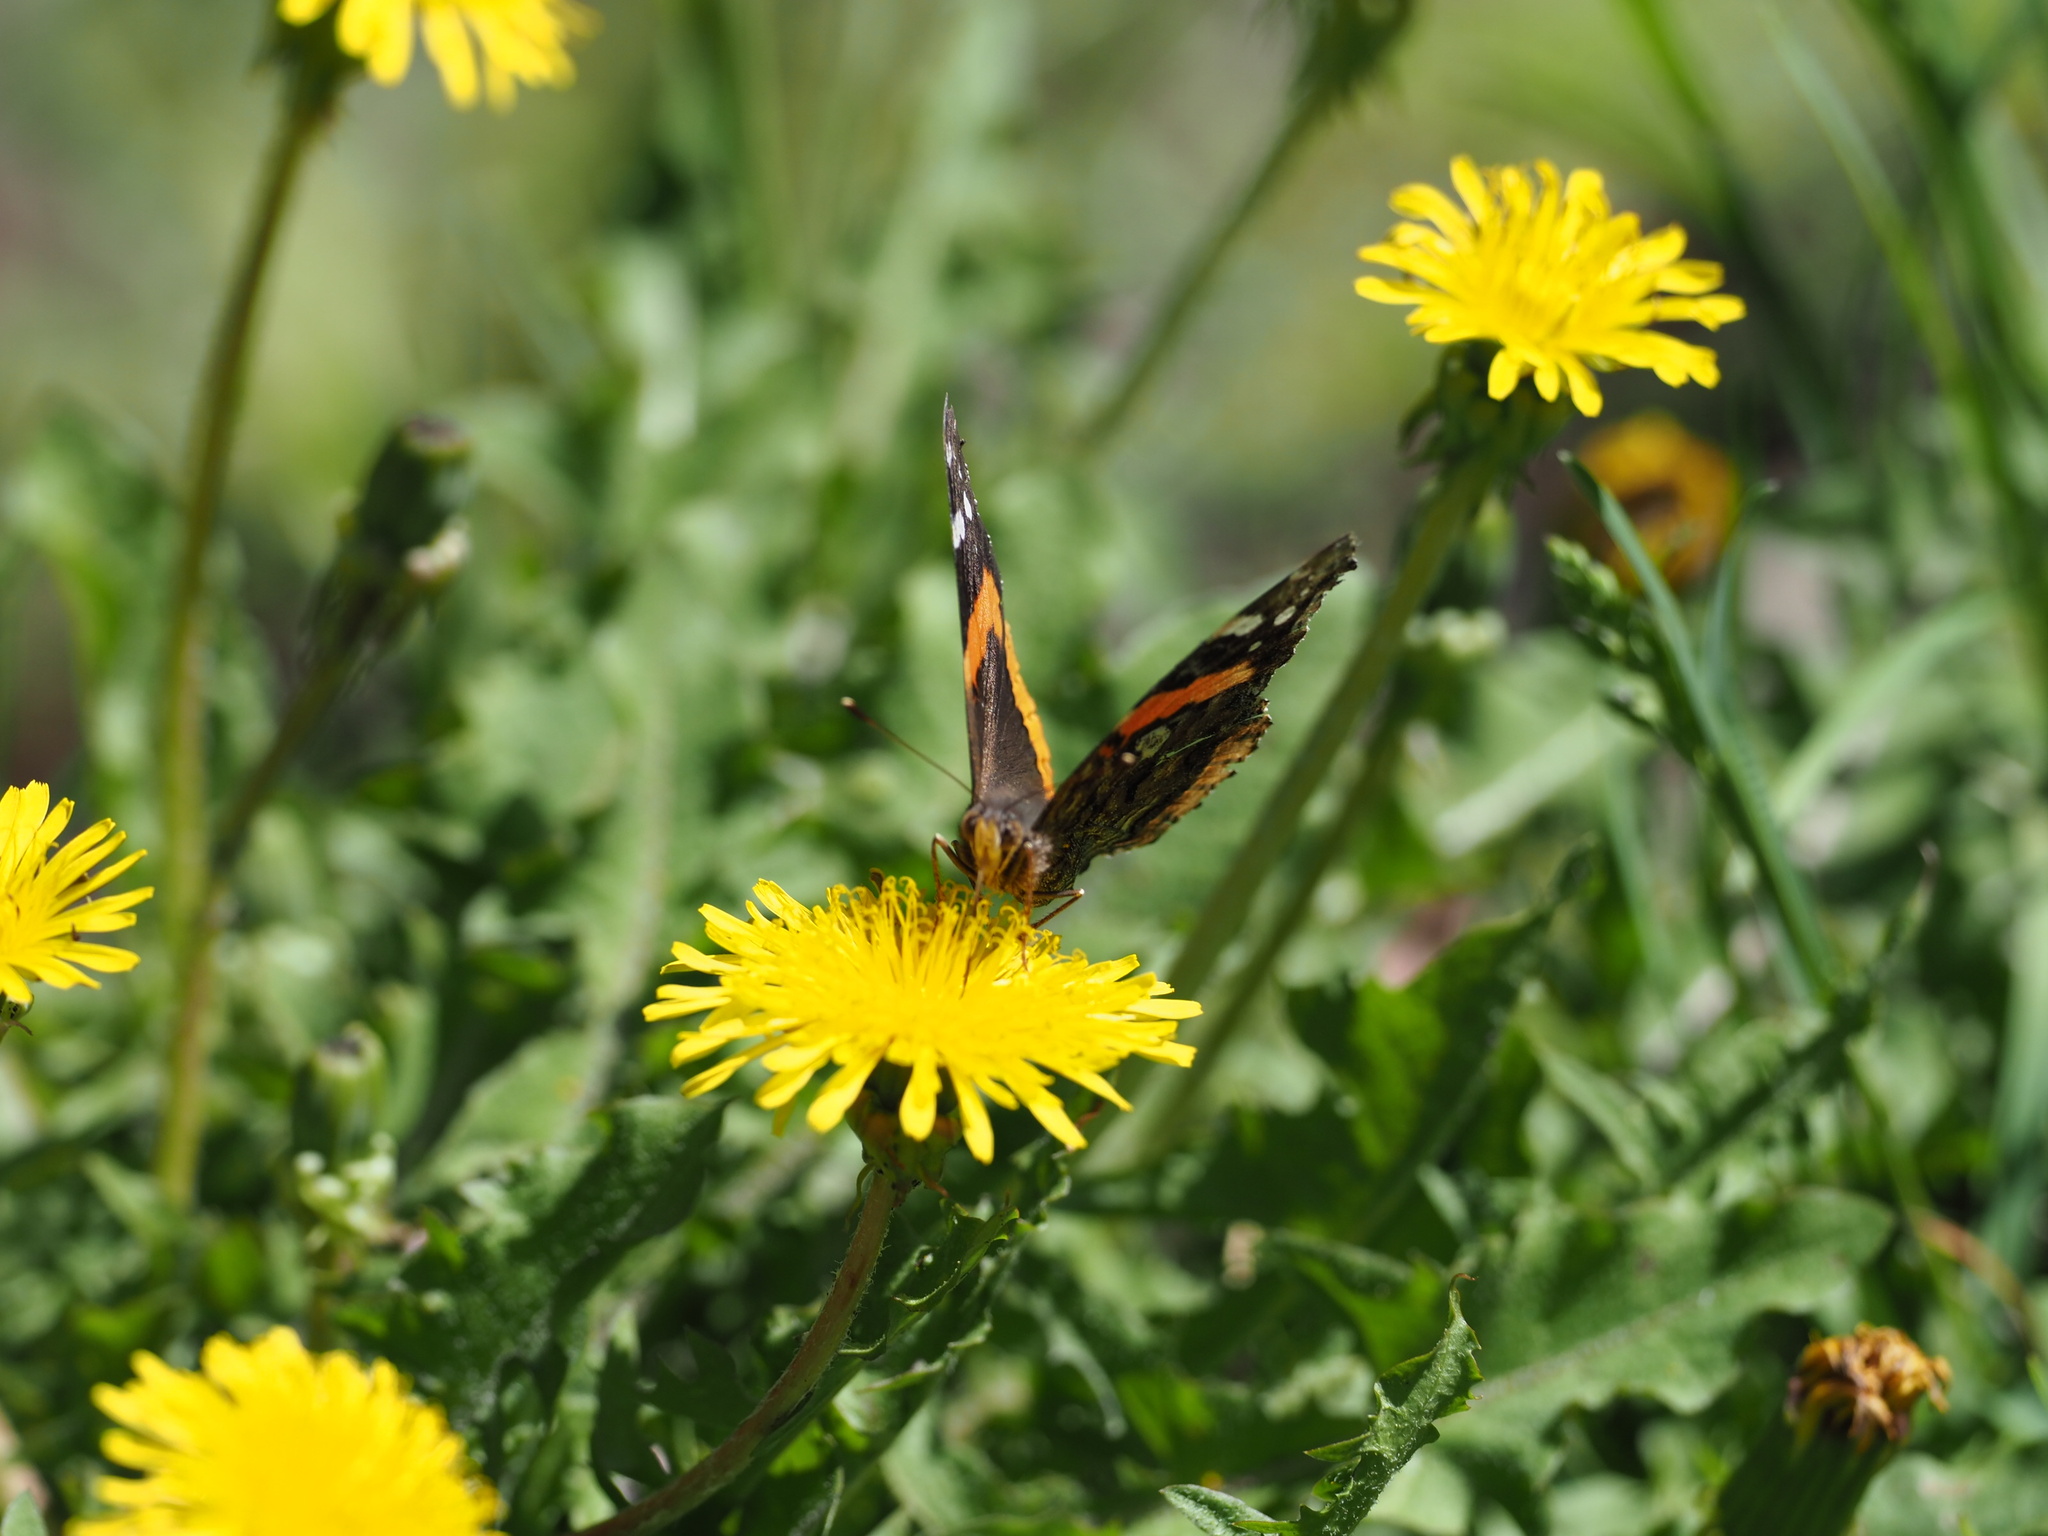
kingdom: Animalia
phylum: Arthropoda
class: Insecta
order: Lepidoptera
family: Nymphalidae
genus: Vanessa
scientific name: Vanessa atalanta
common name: Red admiral
